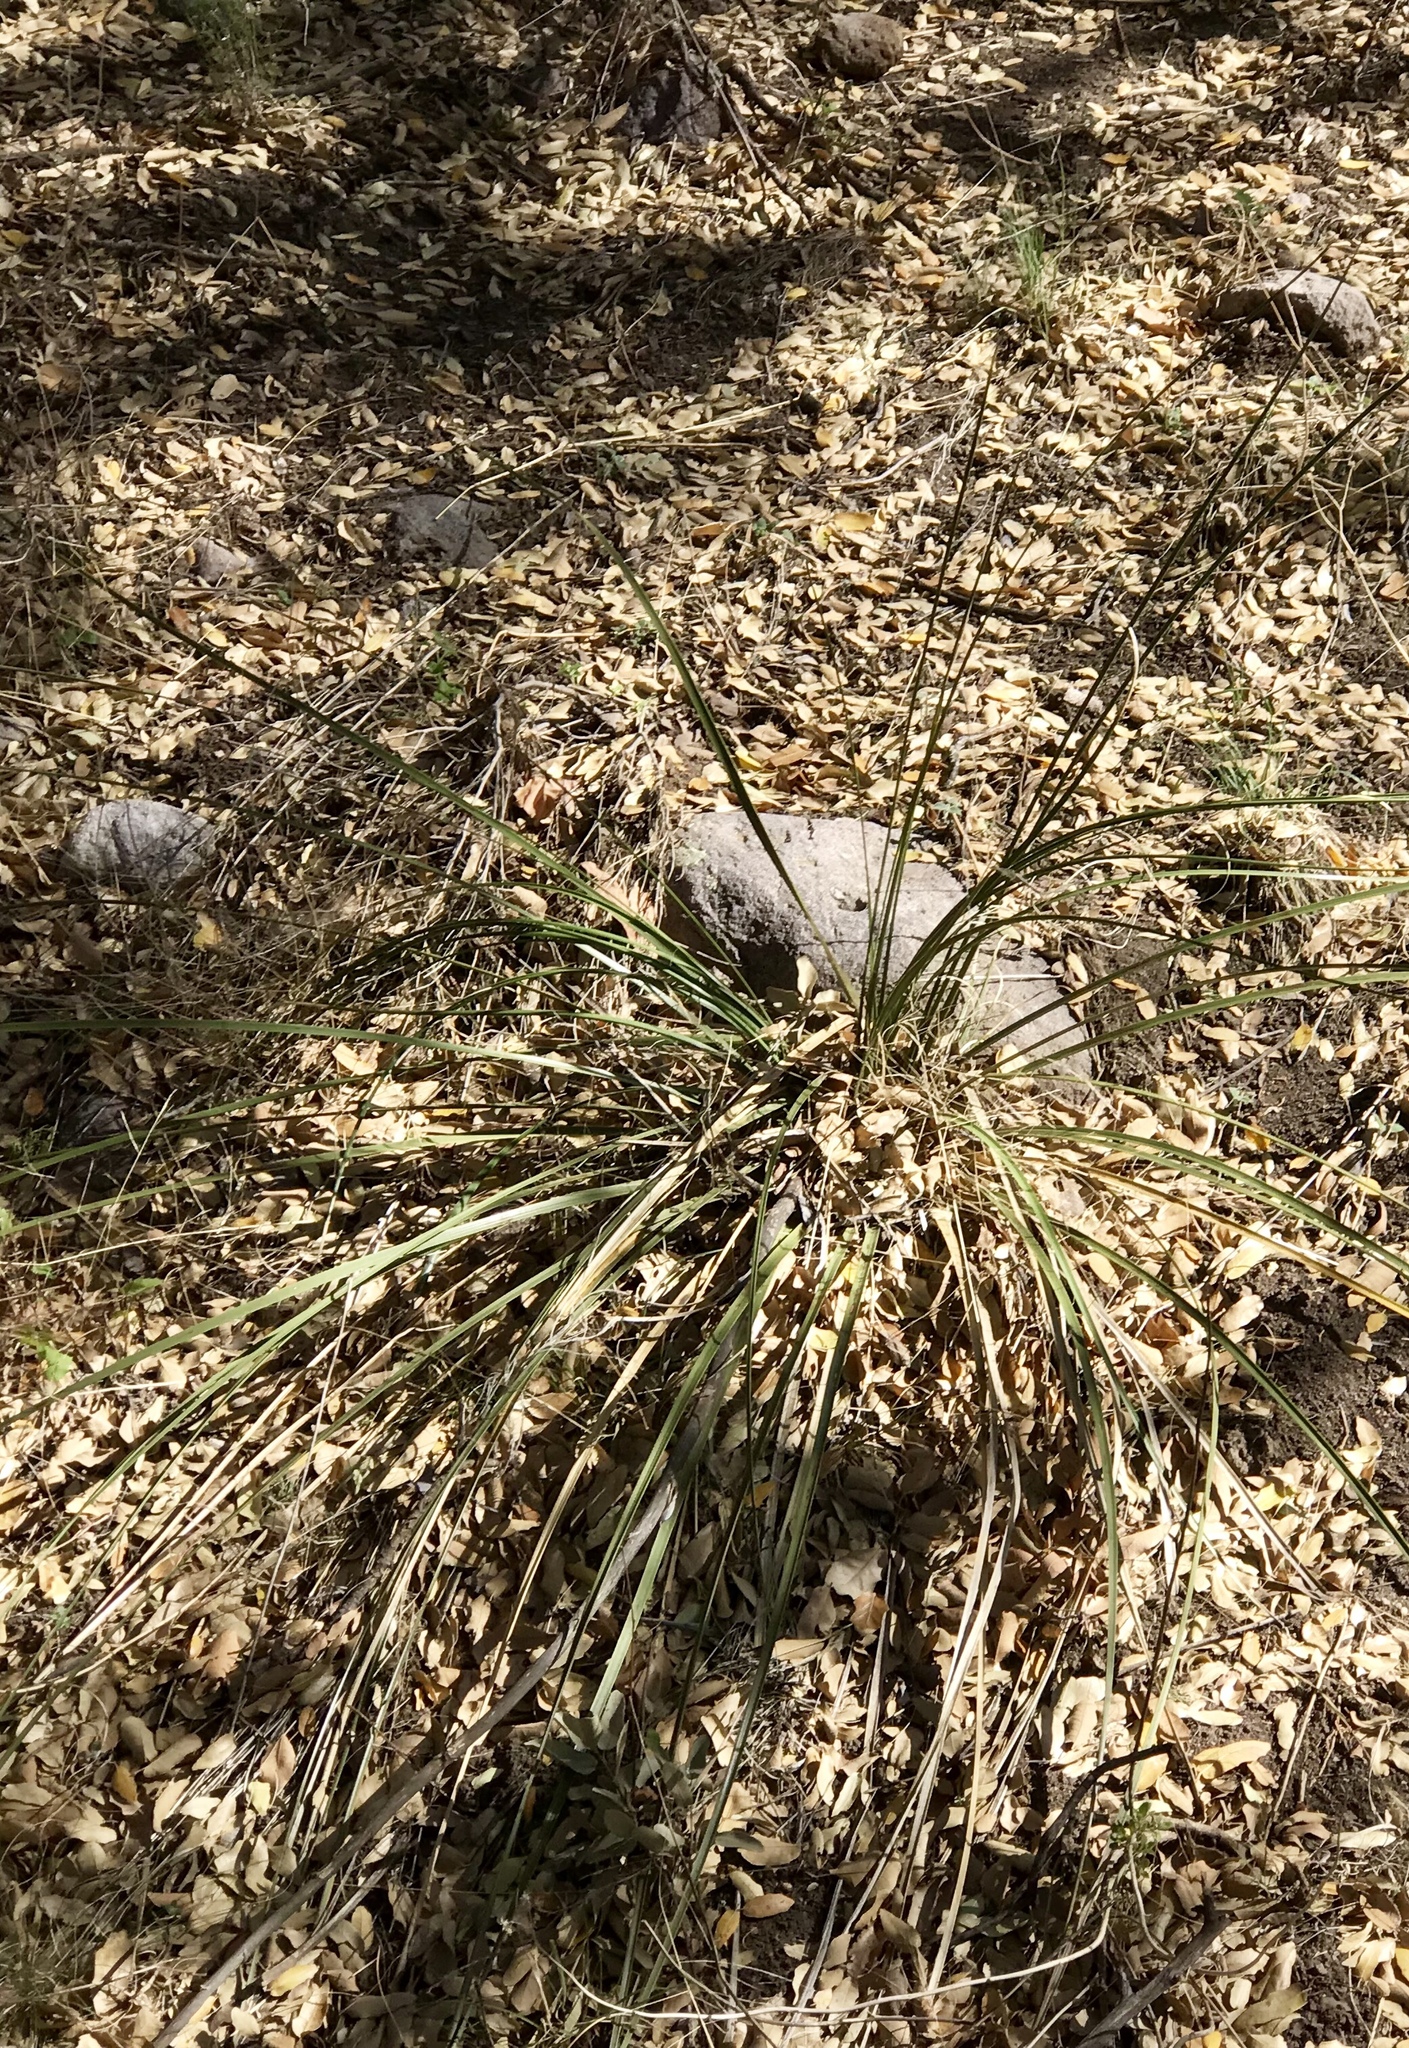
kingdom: Plantae
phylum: Tracheophyta
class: Liliopsida
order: Asparagales
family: Asparagaceae
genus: Nolina
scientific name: Nolina microcarpa
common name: Bear-grass
